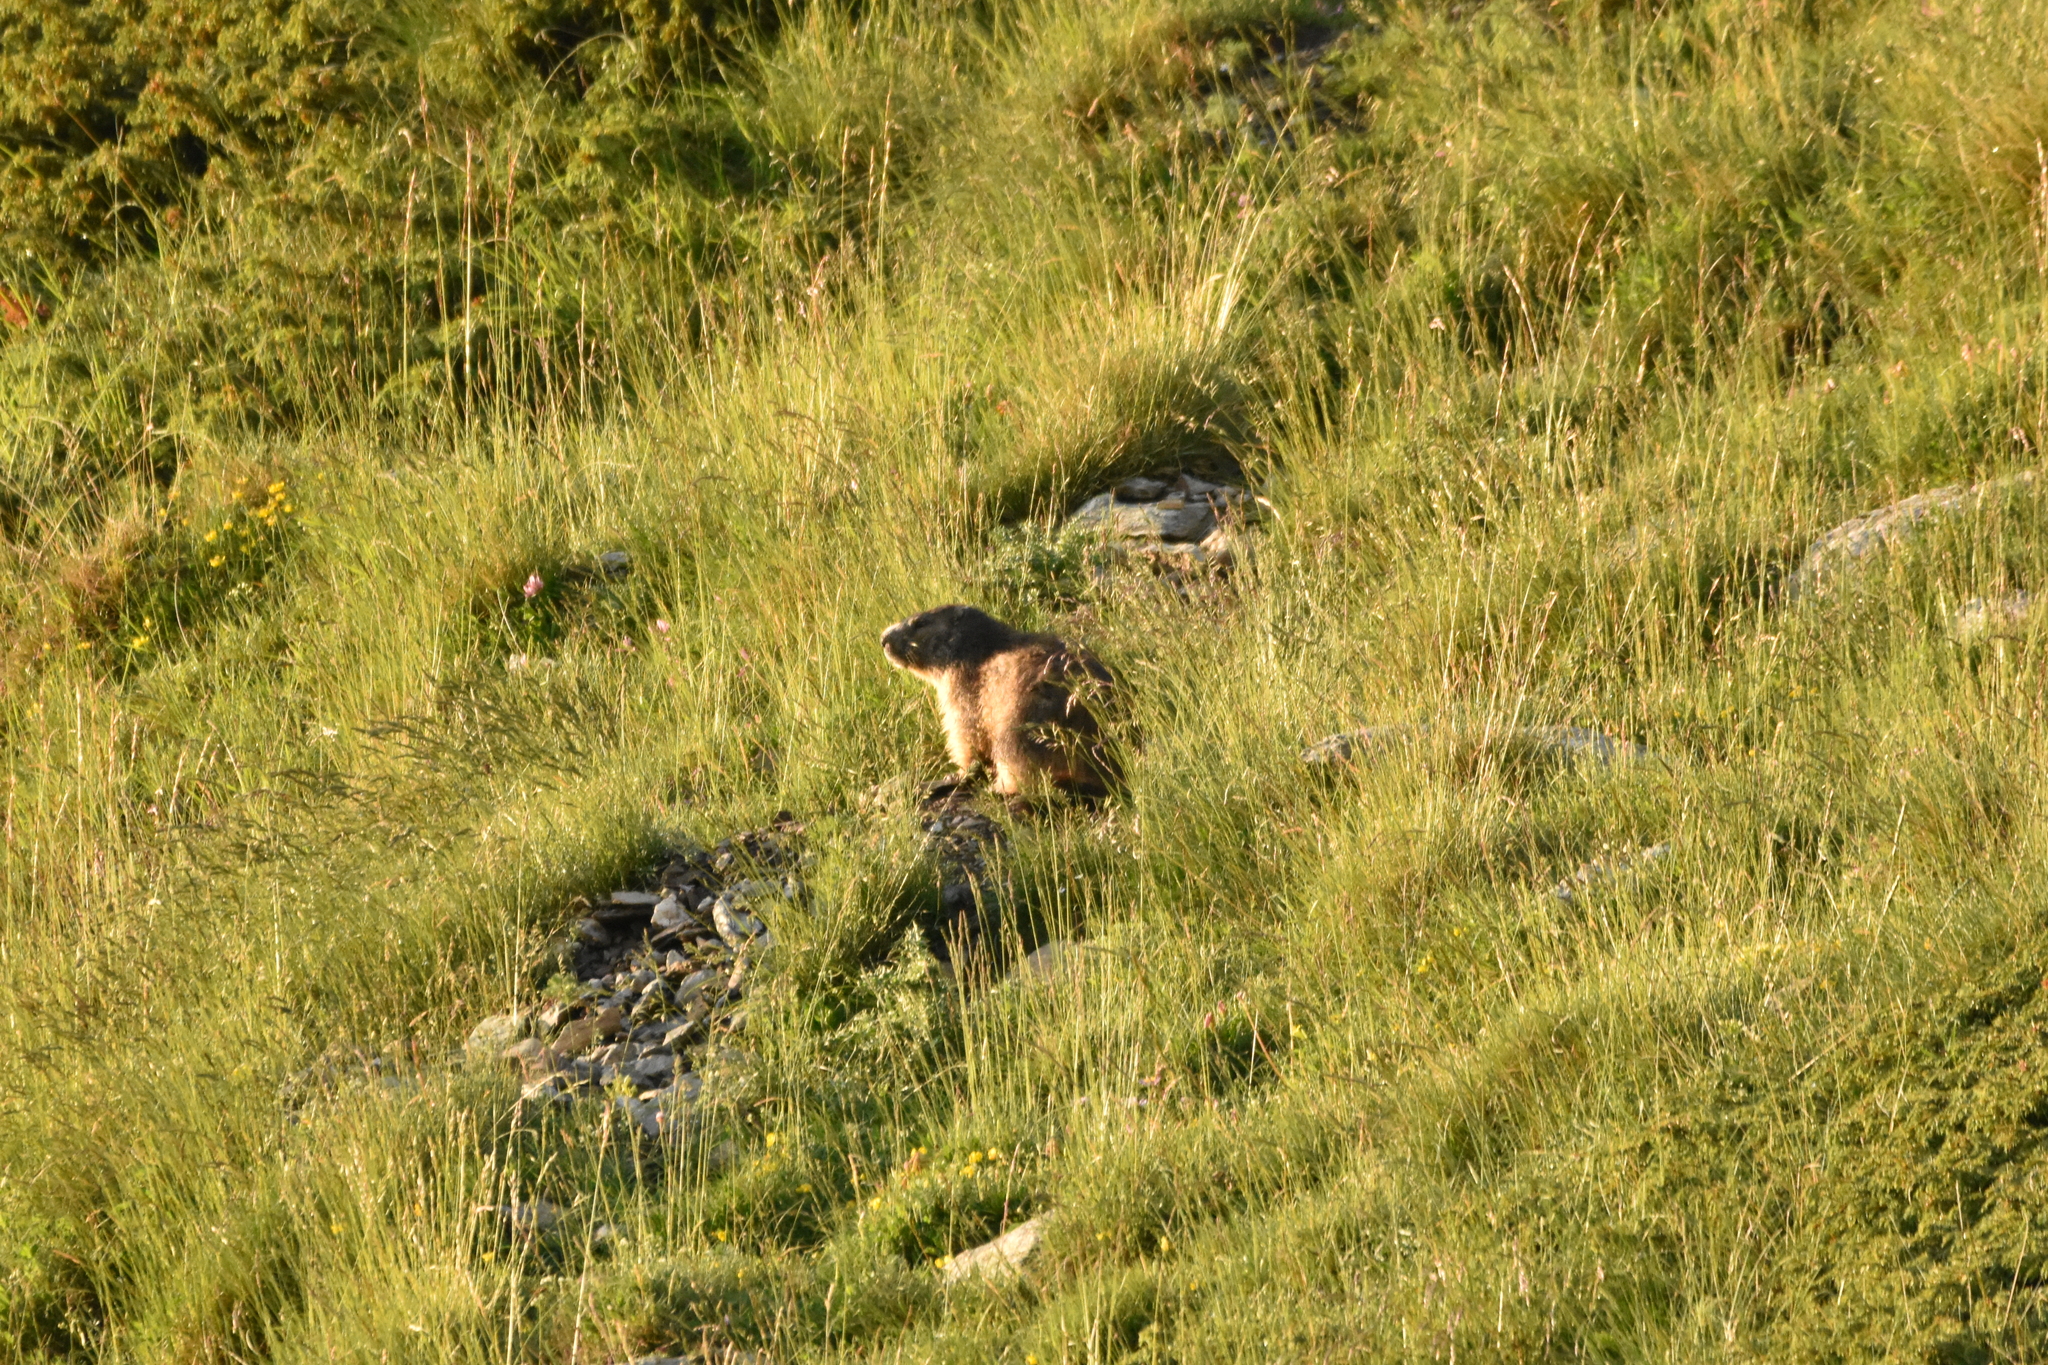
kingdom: Animalia
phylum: Chordata
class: Mammalia
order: Rodentia
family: Sciuridae
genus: Marmota
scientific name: Marmota marmota
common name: Alpine marmot
